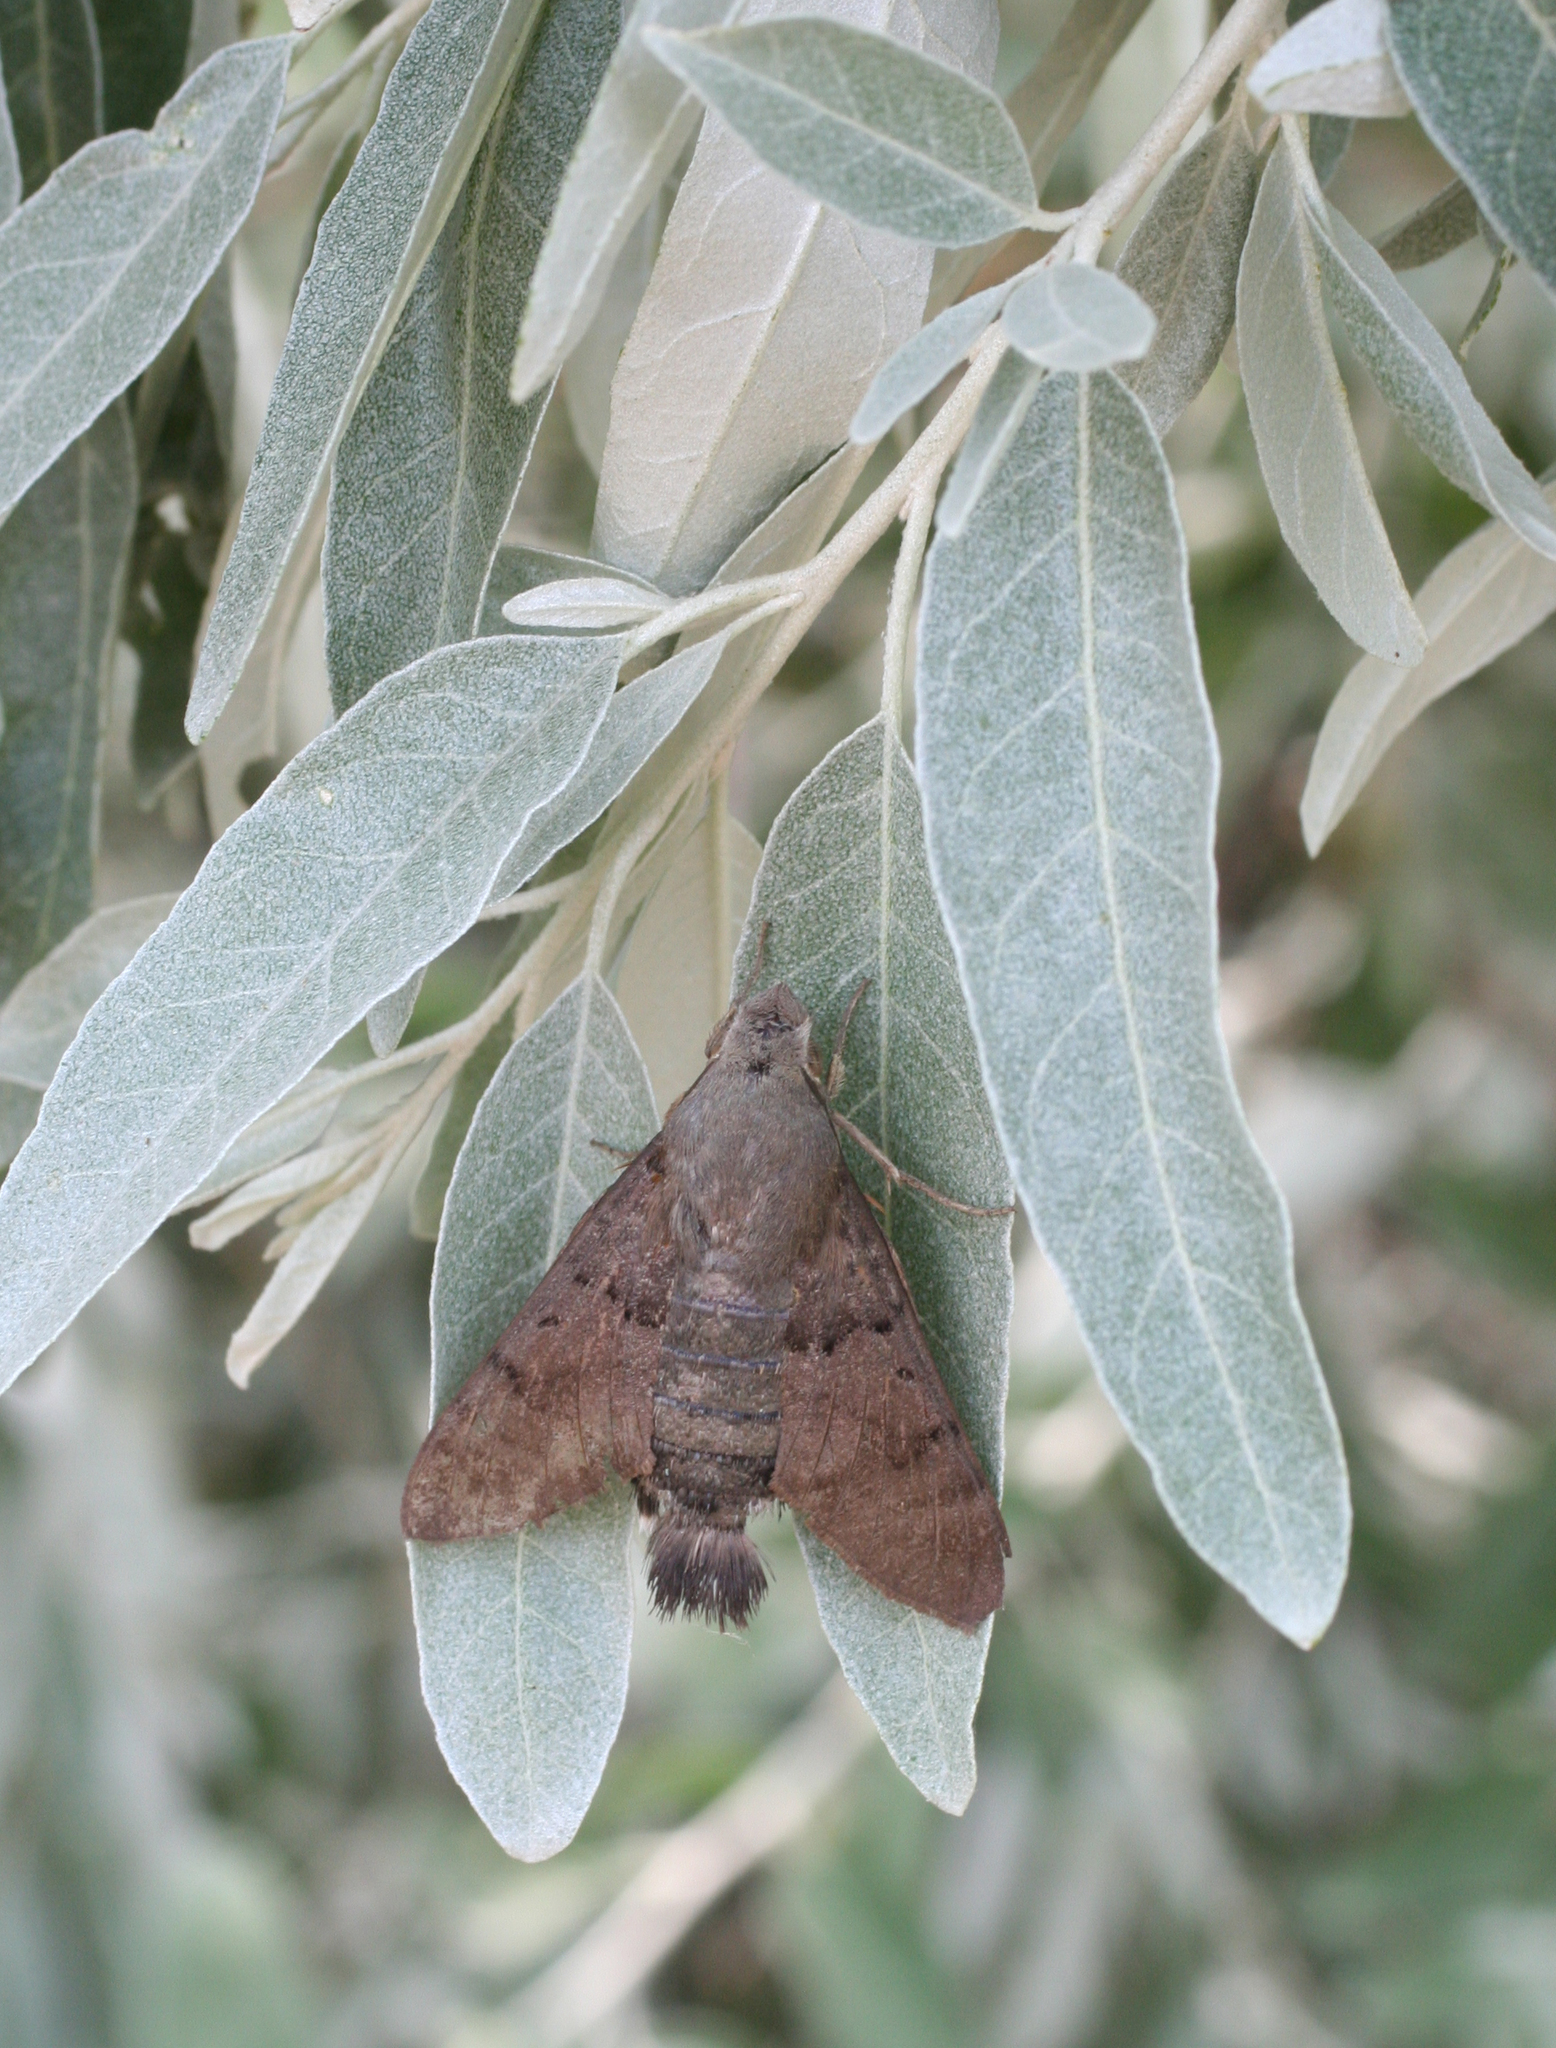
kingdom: Animalia
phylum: Arthropoda
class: Insecta
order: Lepidoptera
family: Sphingidae
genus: Macroglossum
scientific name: Macroglossum stellatarum
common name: Humming-bird hawk-moth
